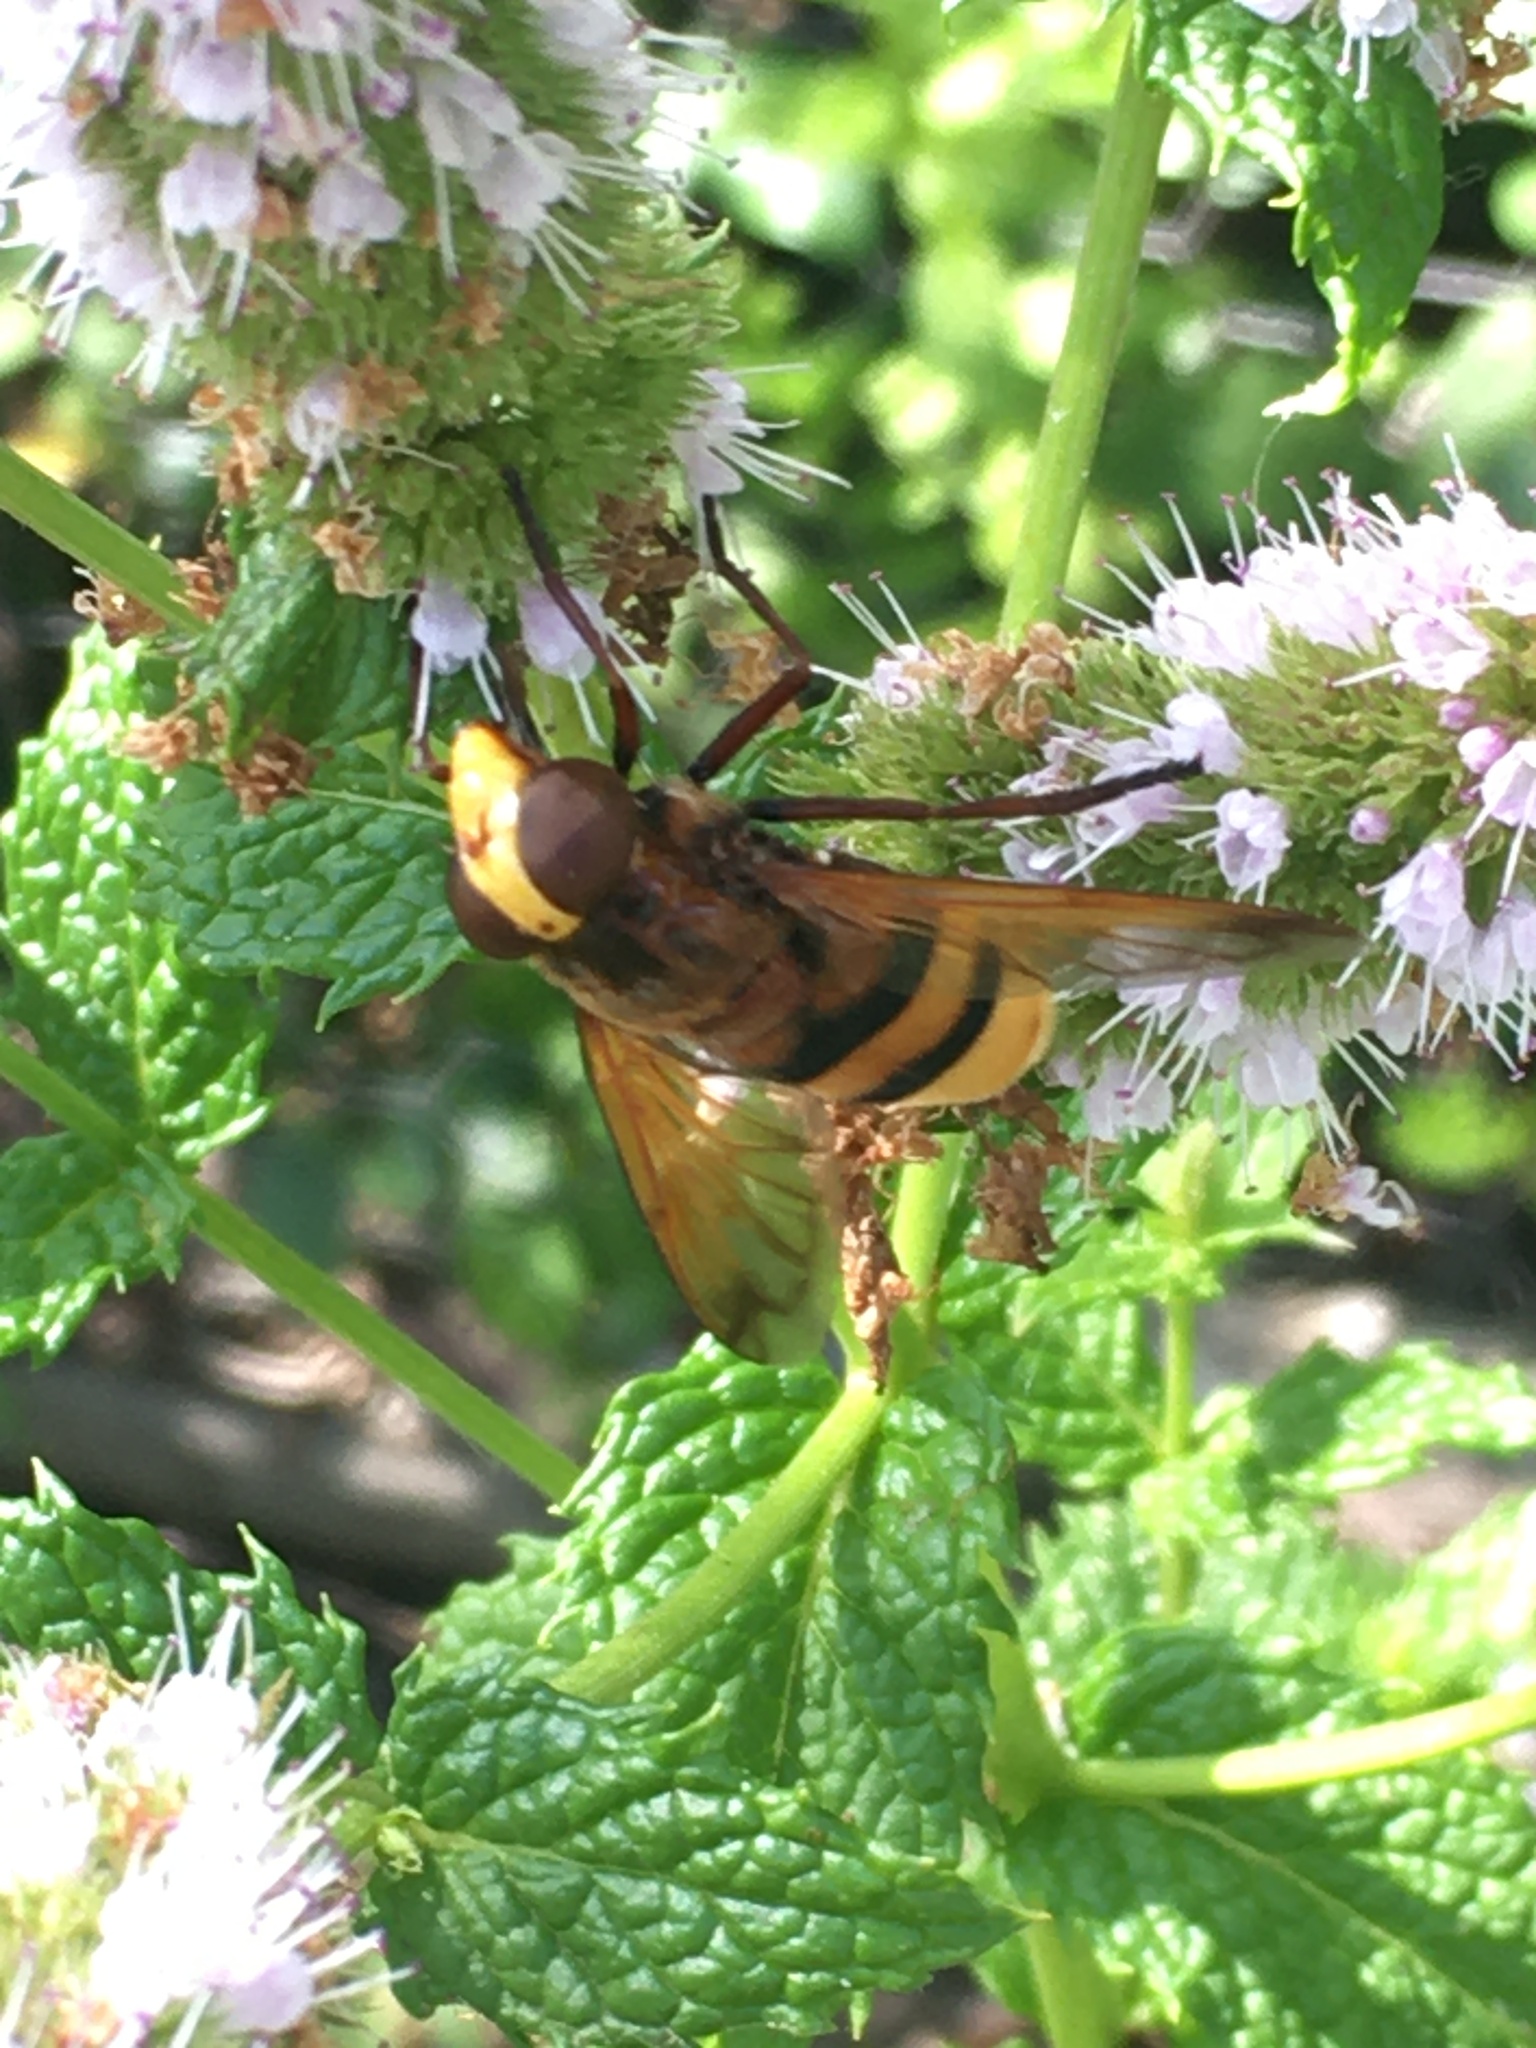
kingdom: Animalia
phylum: Arthropoda
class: Insecta
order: Diptera
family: Syrphidae
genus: Volucella
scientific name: Volucella zonaria
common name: Hornet hoverfly
